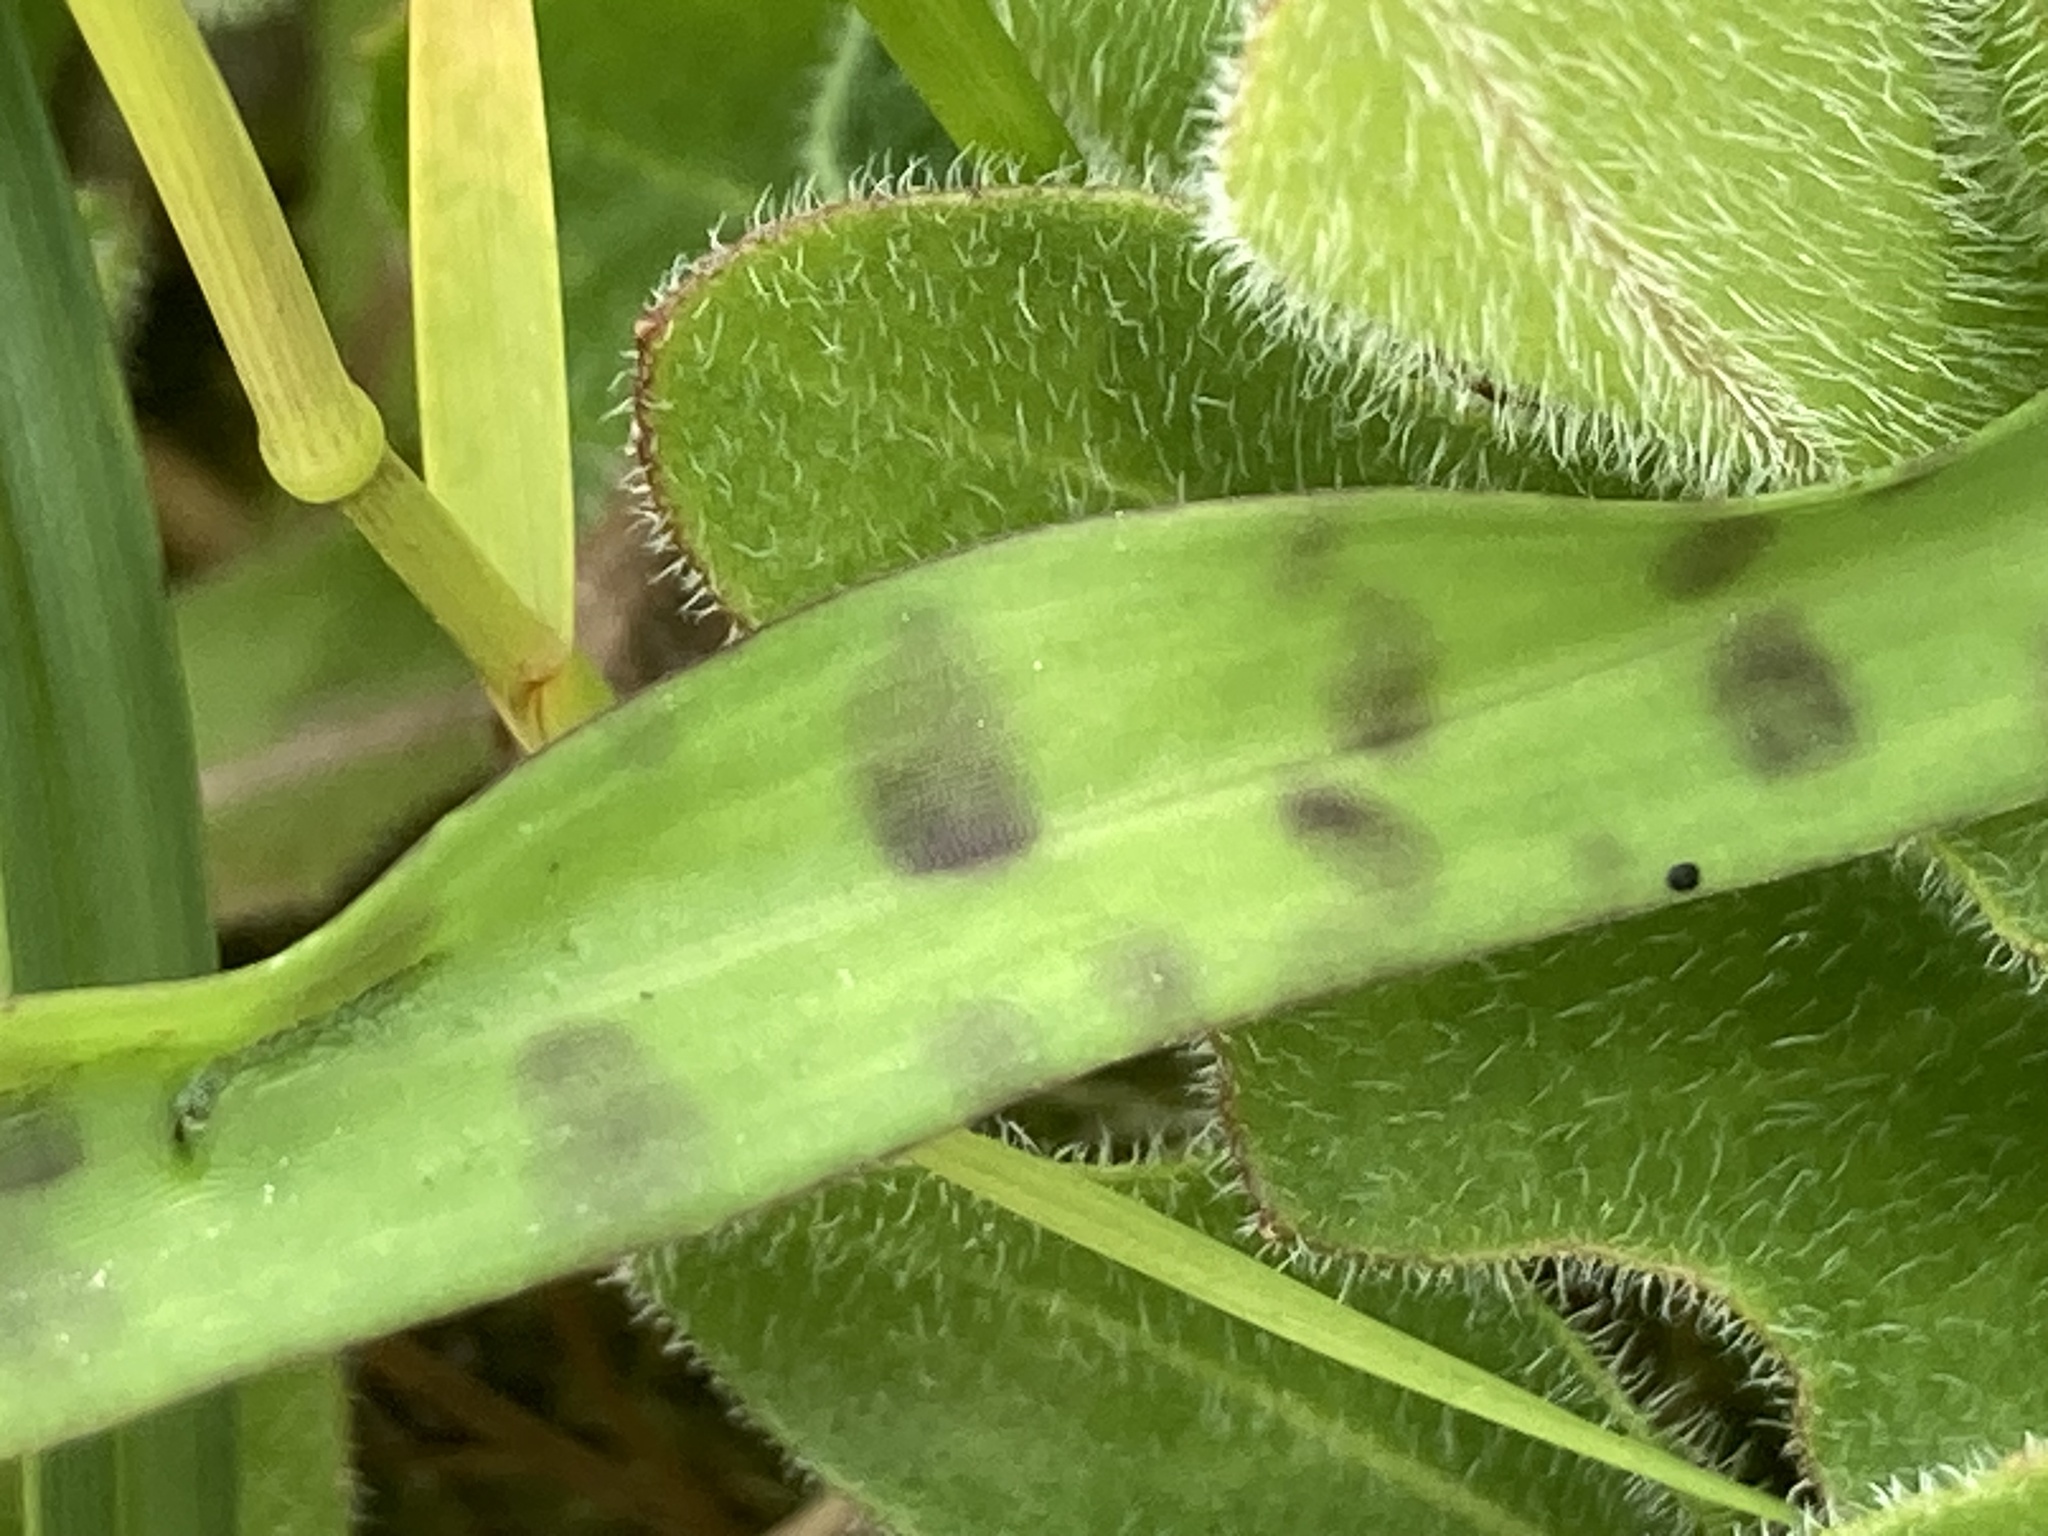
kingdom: Plantae
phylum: Tracheophyta
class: Liliopsida
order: Asparagales
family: Orchidaceae
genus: Dactylorhiza
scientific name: Dactylorhiza maculata
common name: Heath spotted-orchid
